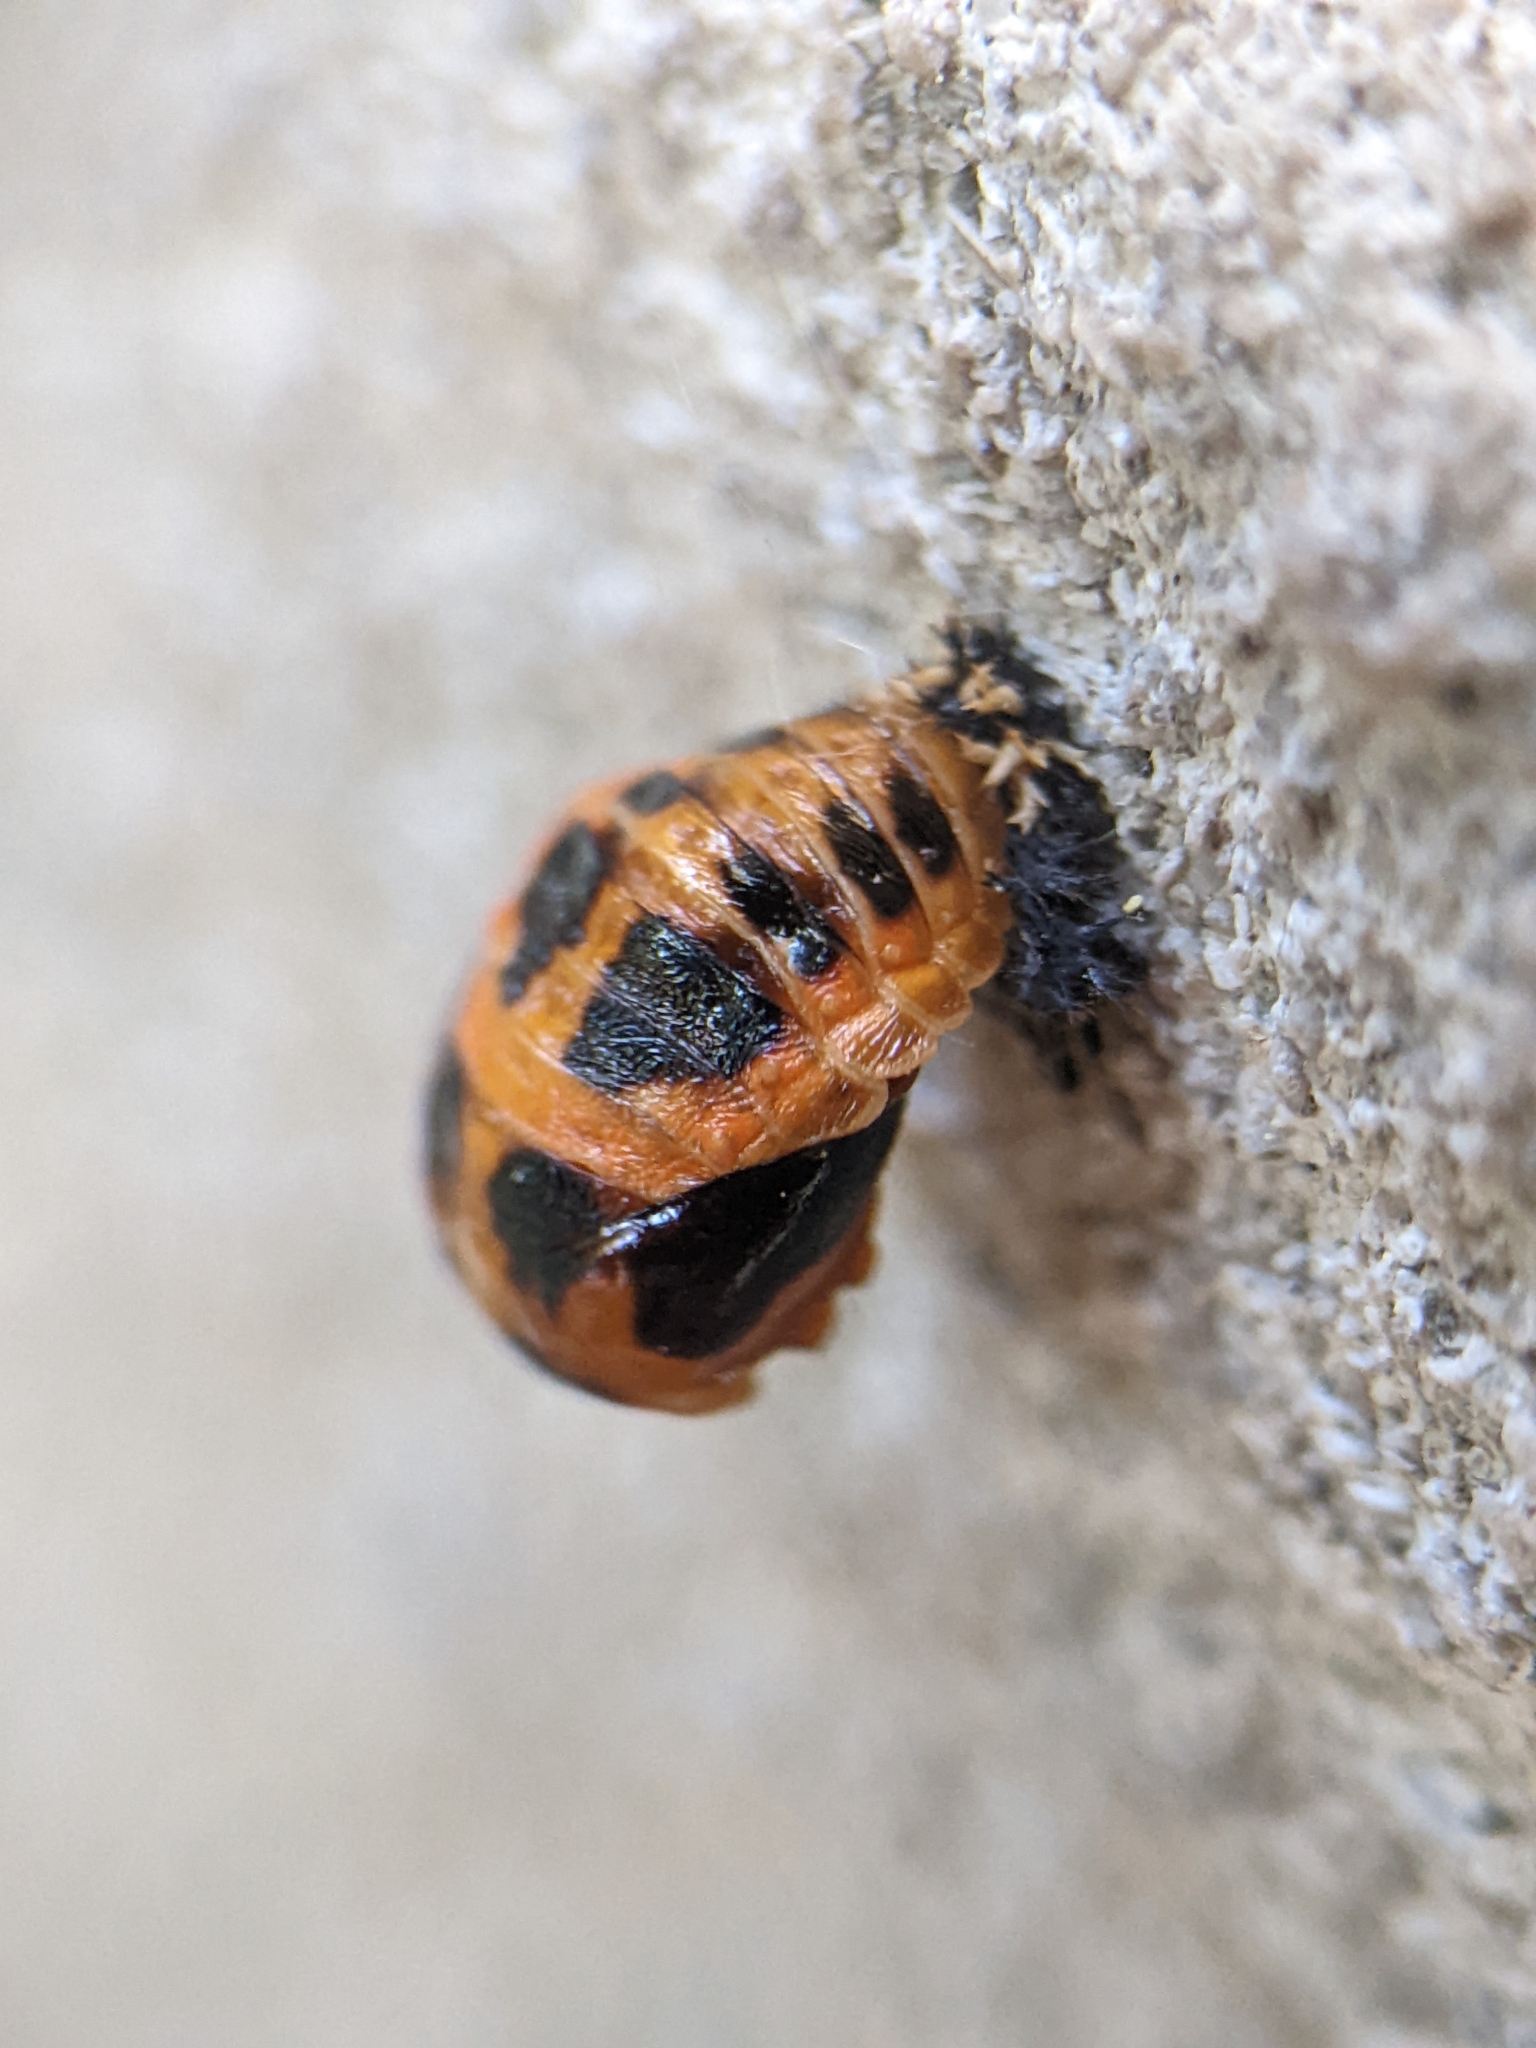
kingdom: Animalia
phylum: Arthropoda
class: Insecta
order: Coleoptera
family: Coccinellidae
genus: Harmonia
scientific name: Harmonia axyridis
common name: Harlequin ladybird
